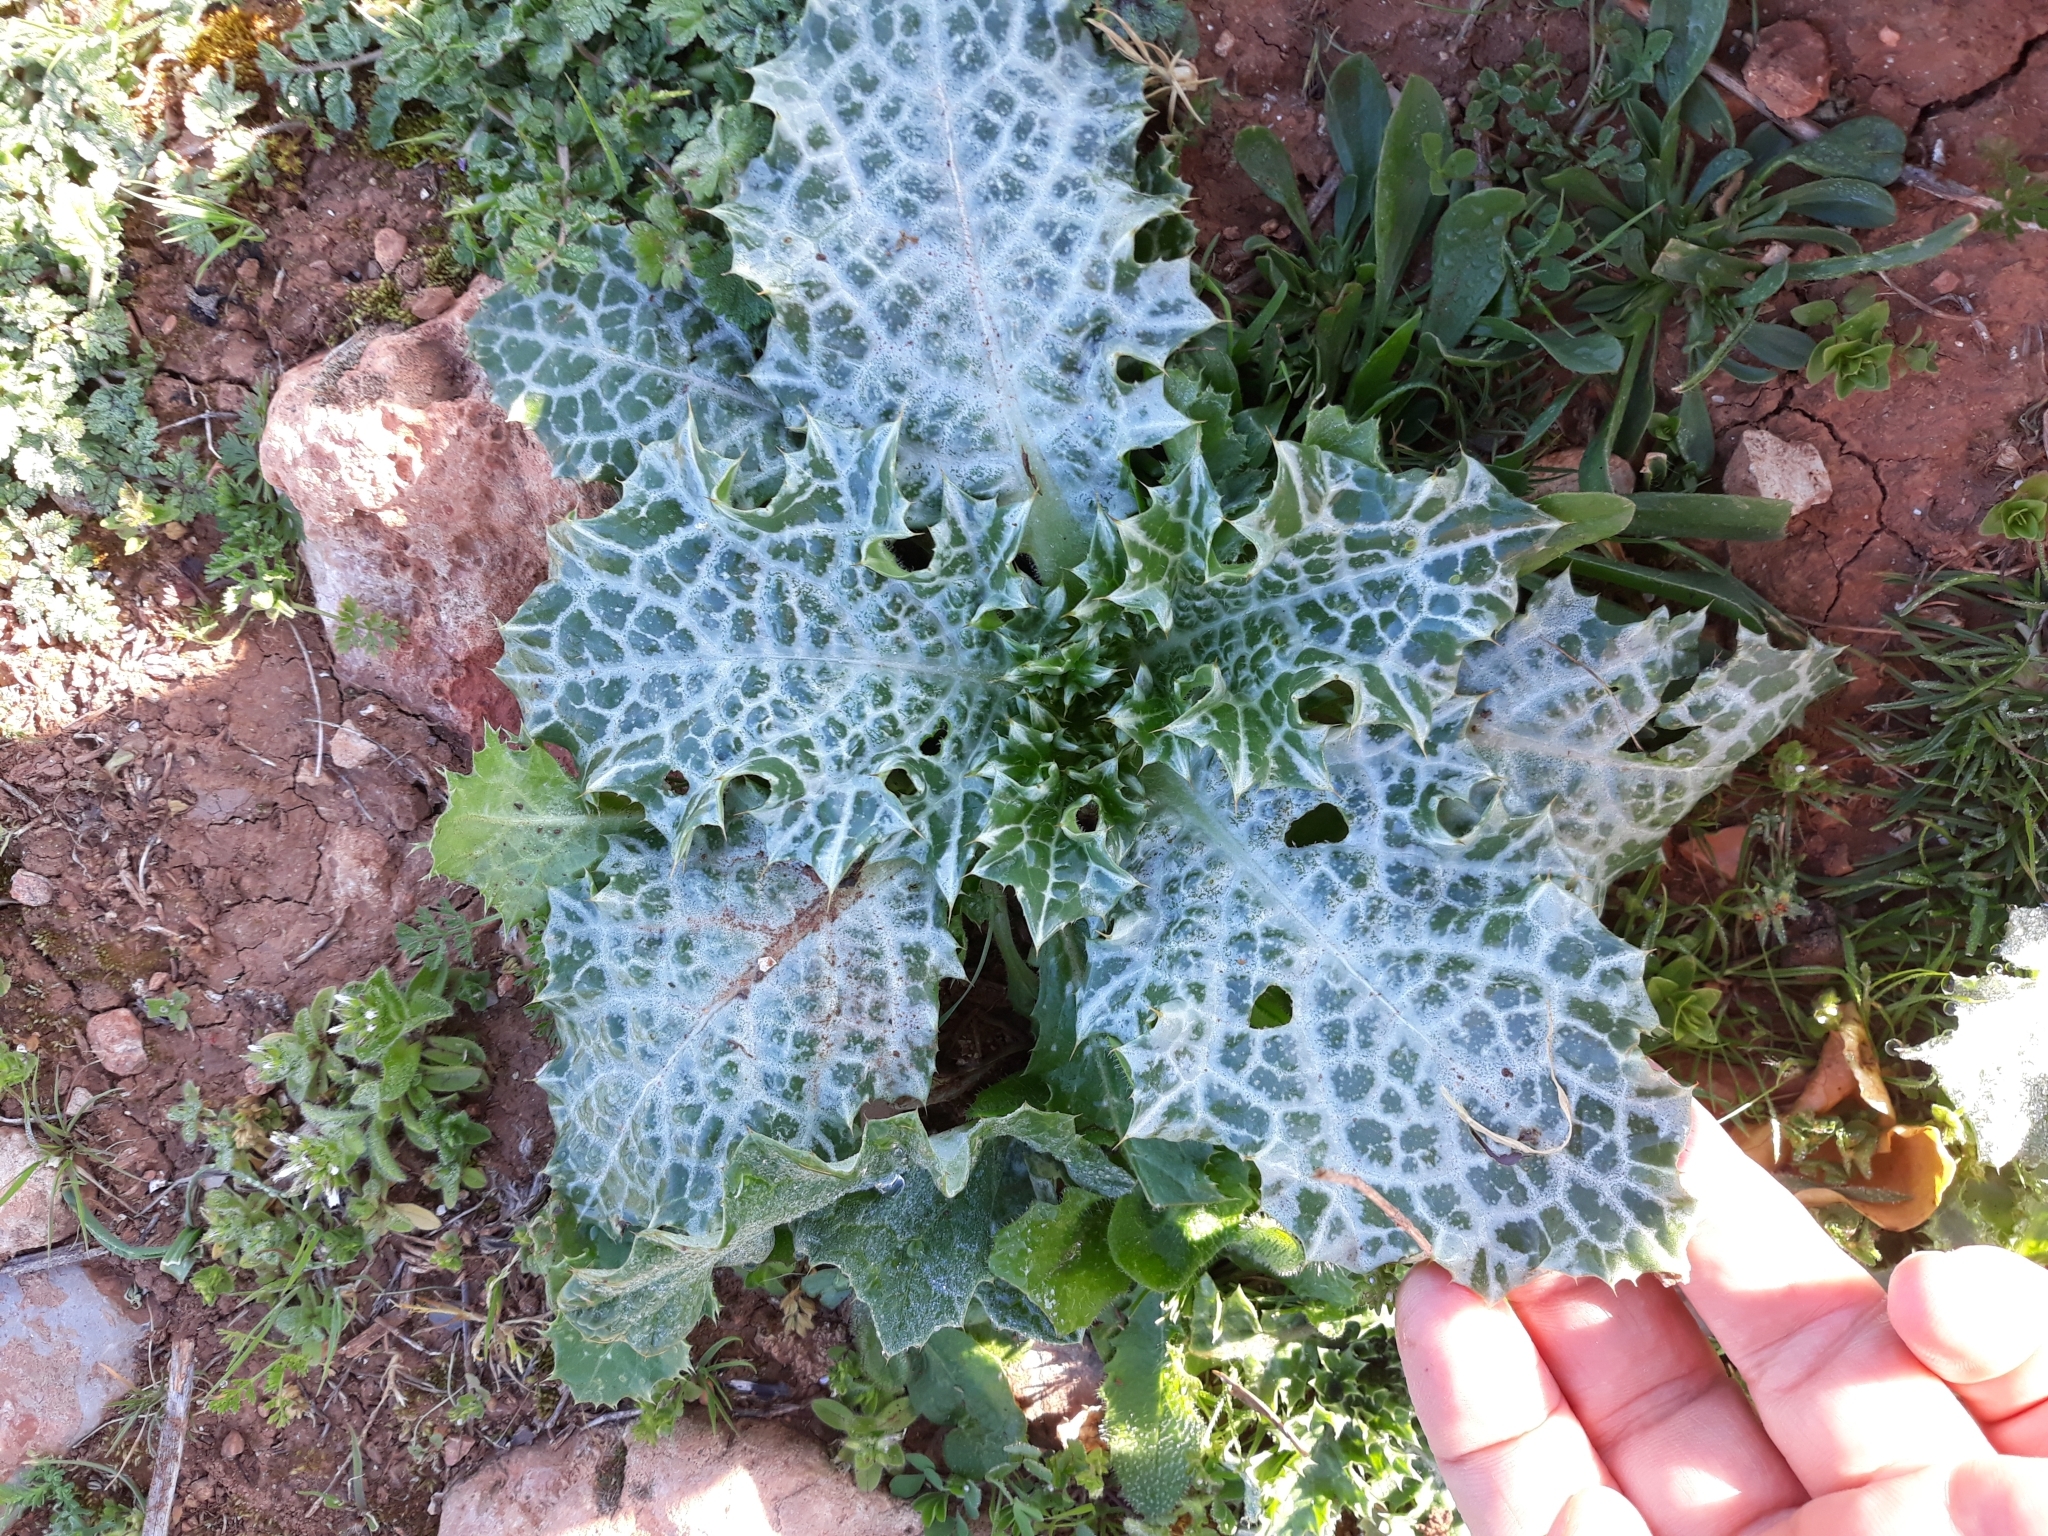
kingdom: Plantae
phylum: Tracheophyta
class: Magnoliopsida
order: Asterales
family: Asteraceae
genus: Notobasis
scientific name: Notobasis syriaca
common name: Syrian thistle
